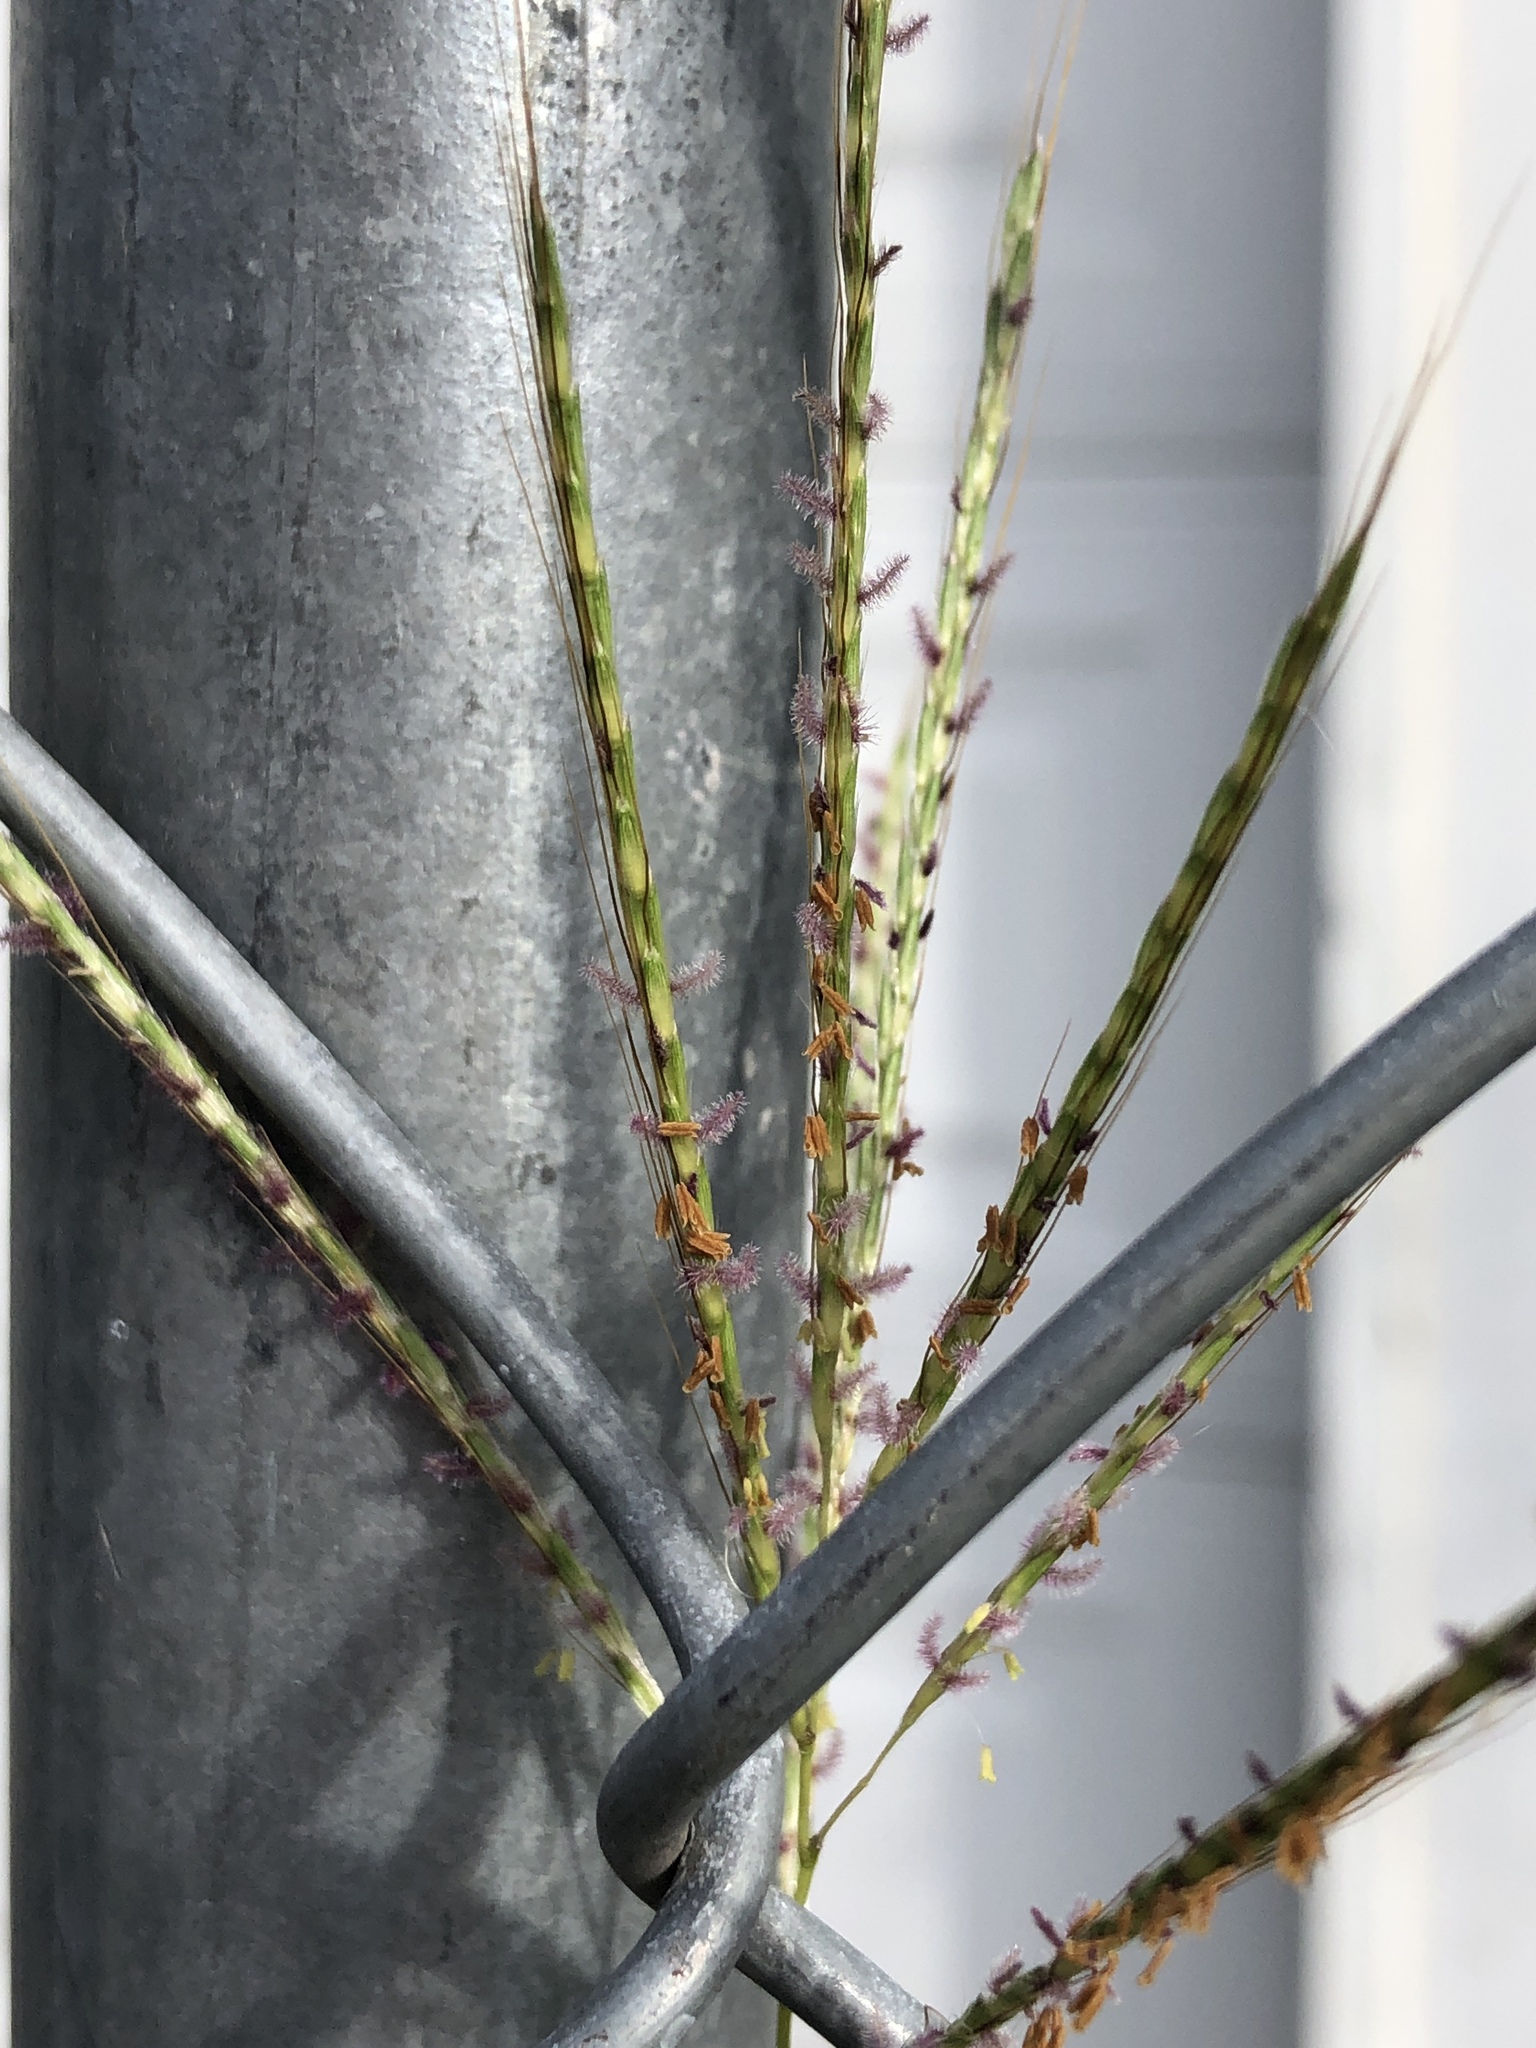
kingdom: Plantae
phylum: Tracheophyta
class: Liliopsida
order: Poales
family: Poaceae
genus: Bothriochloa
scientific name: Bothriochloa ischaemum
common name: Yellow bluestem
